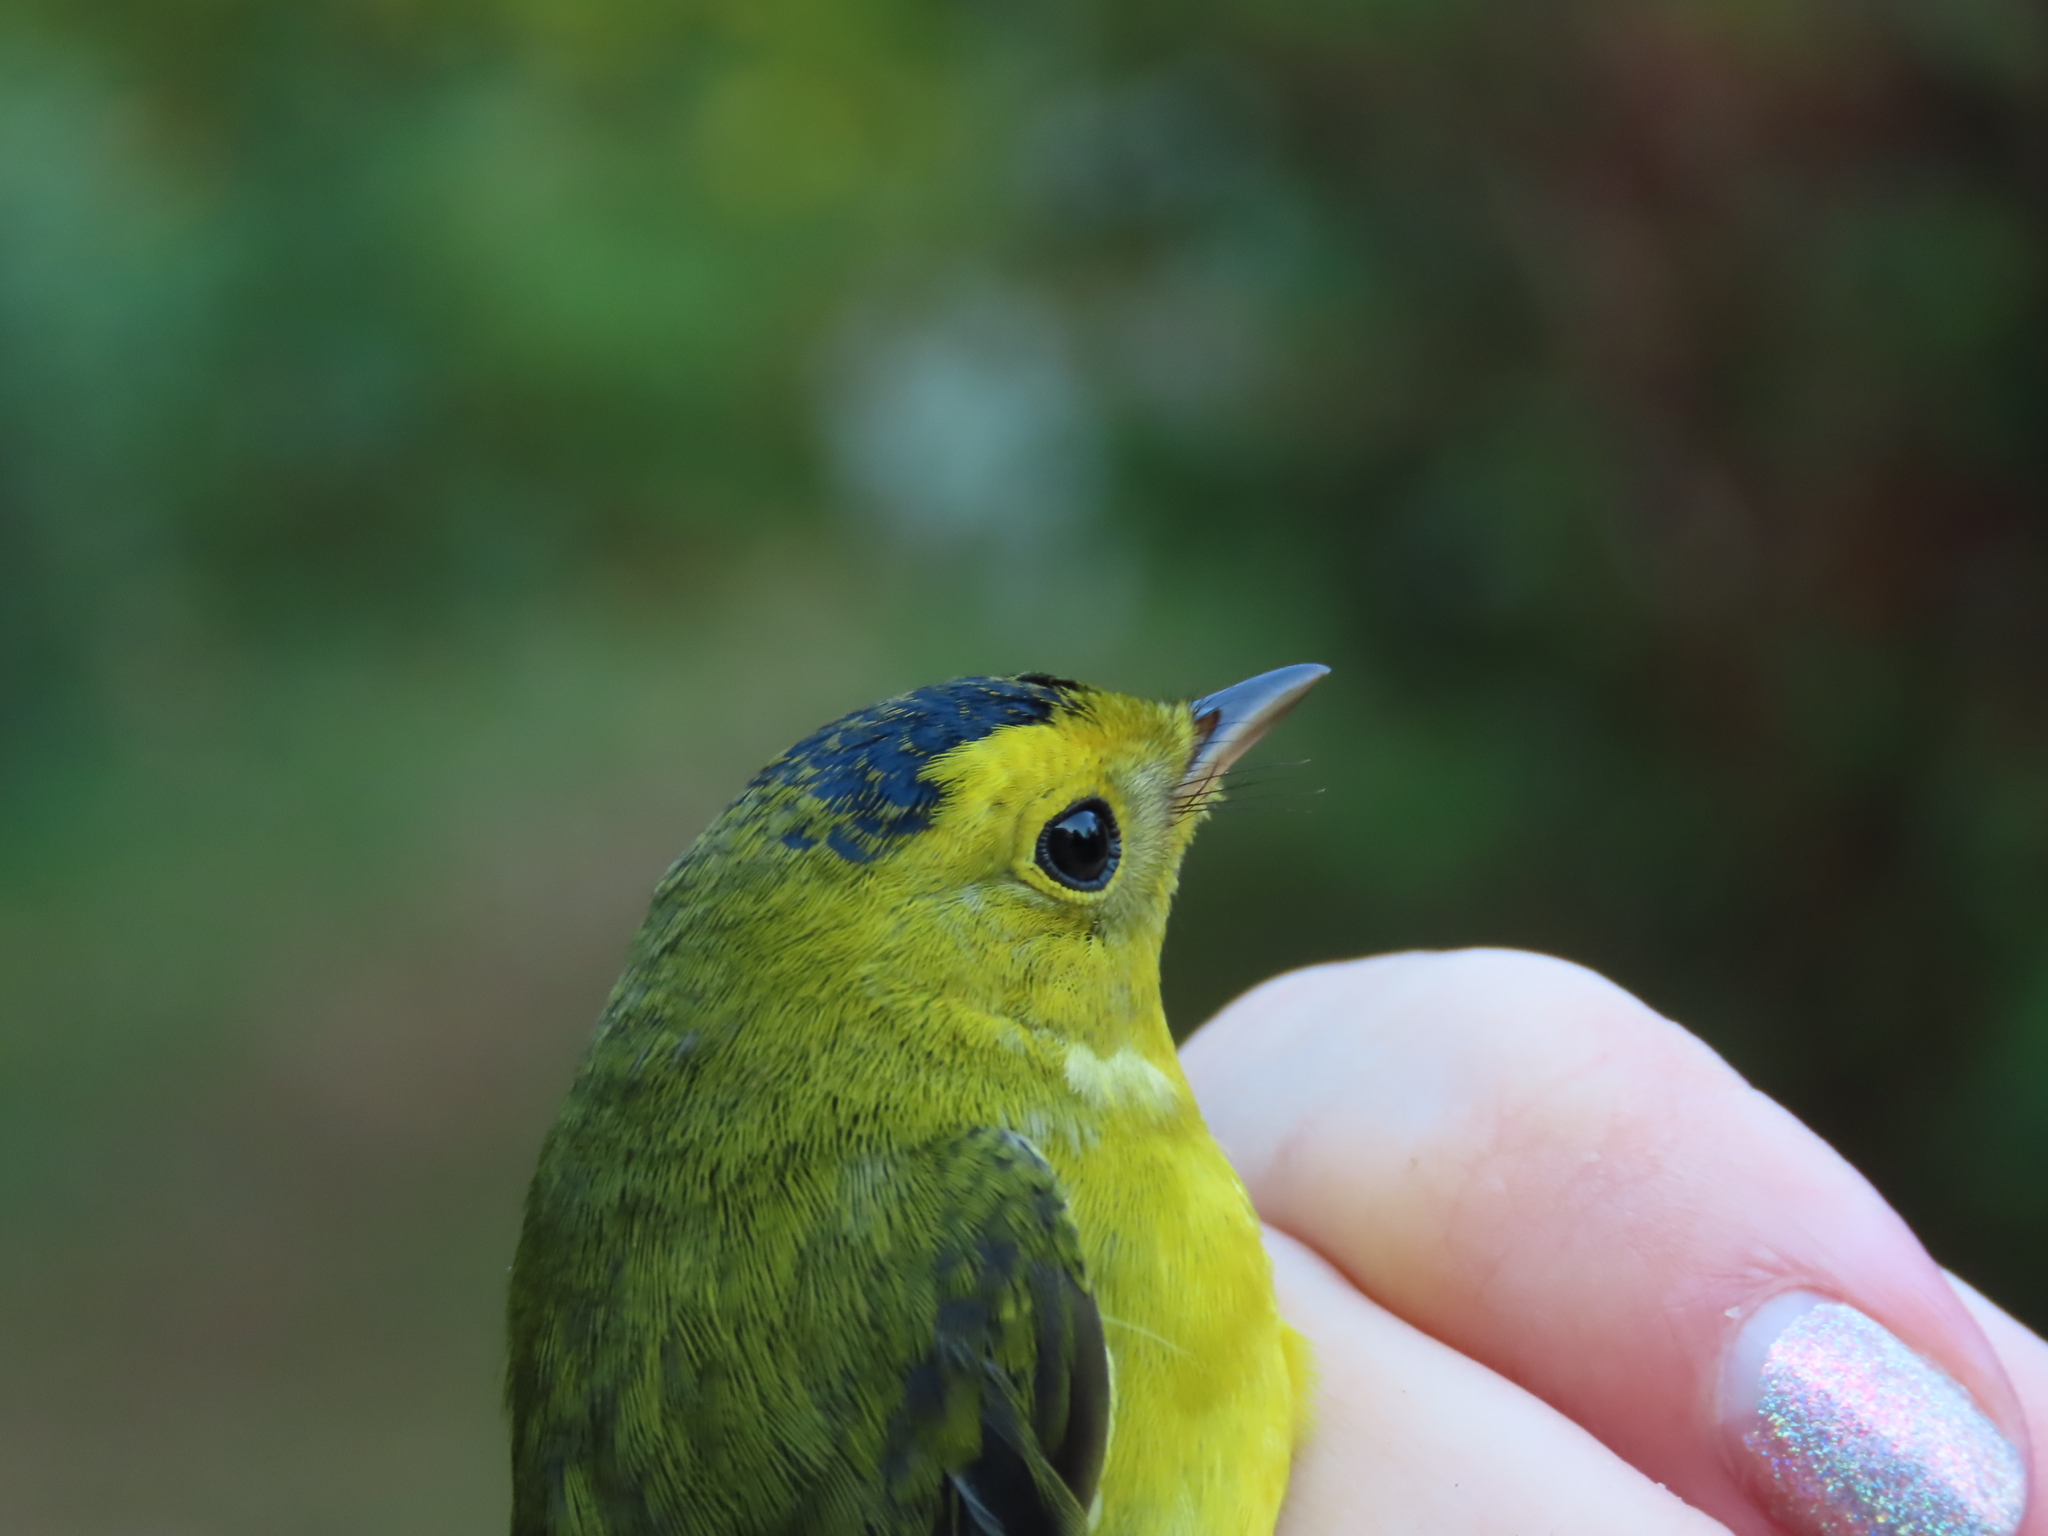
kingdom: Animalia
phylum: Chordata
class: Aves
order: Passeriformes
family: Parulidae
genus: Cardellina
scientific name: Cardellina pusilla
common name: Wilson's warbler
